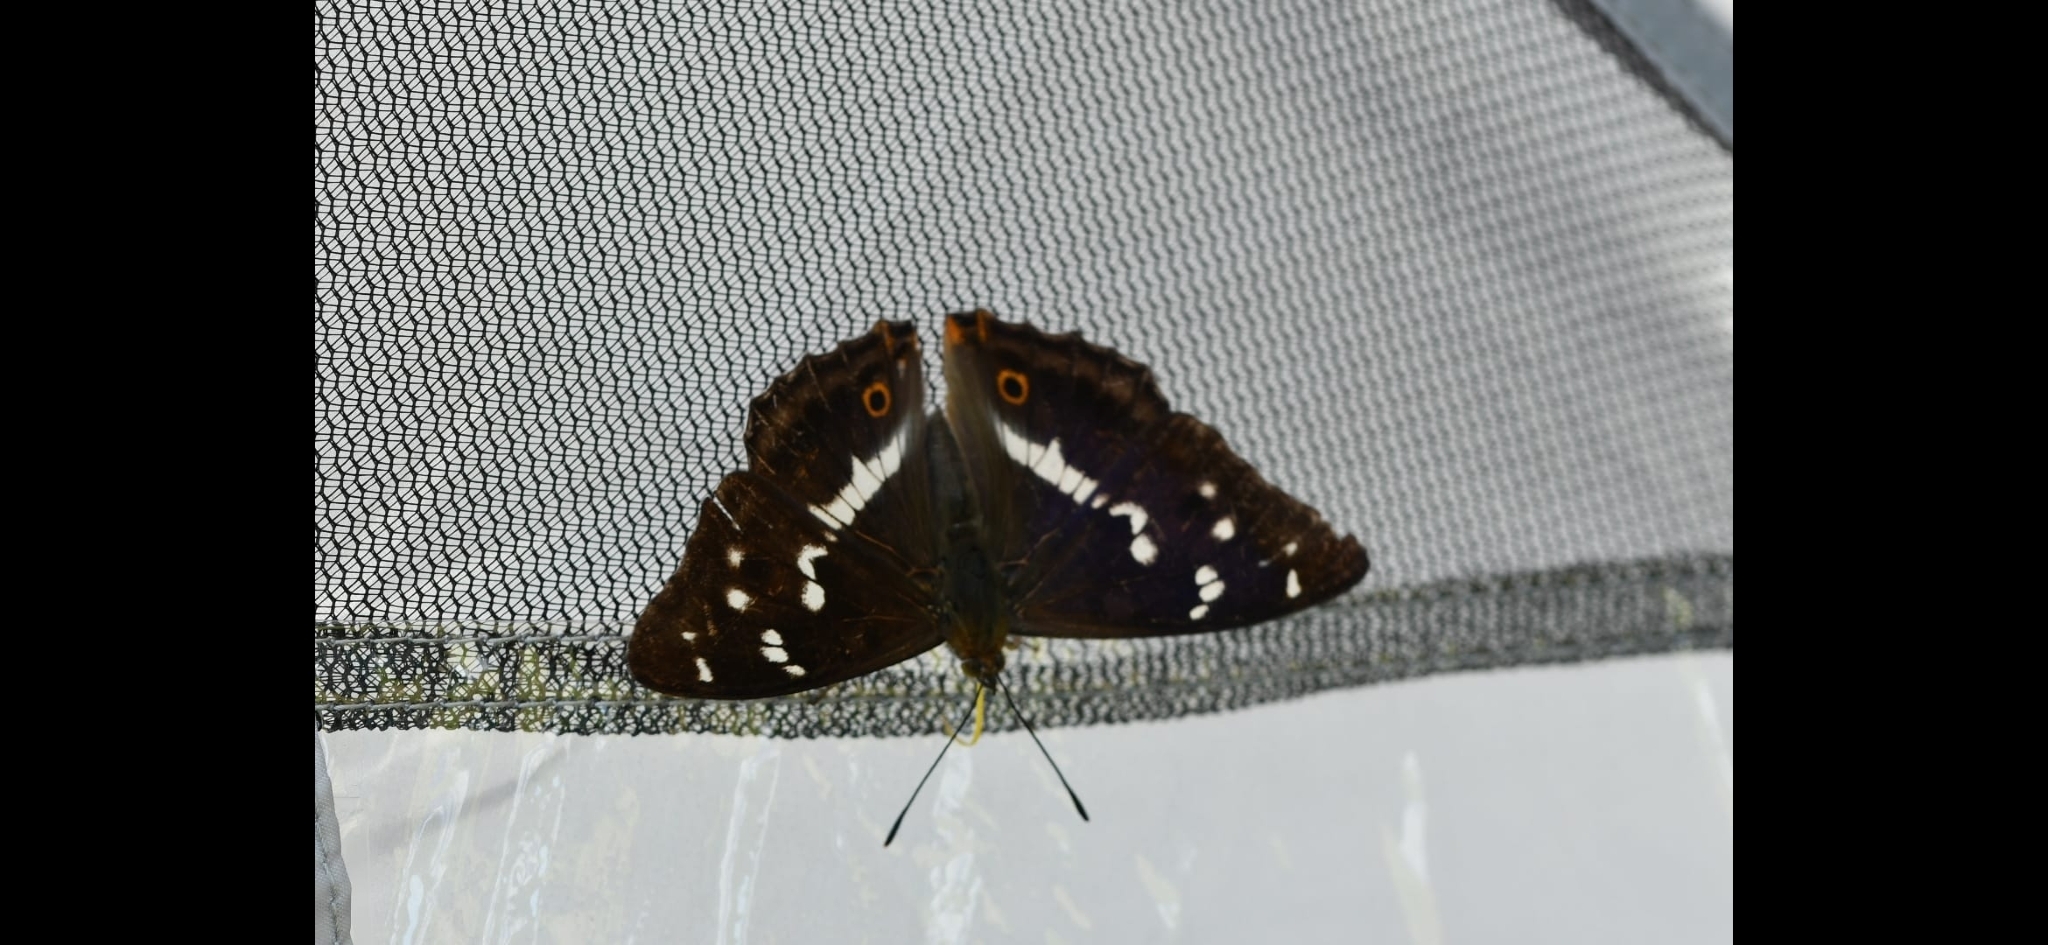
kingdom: Animalia
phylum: Arthropoda
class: Insecta
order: Lepidoptera
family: Nymphalidae
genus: Apatura
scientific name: Apatura iris
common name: Purple emperor
